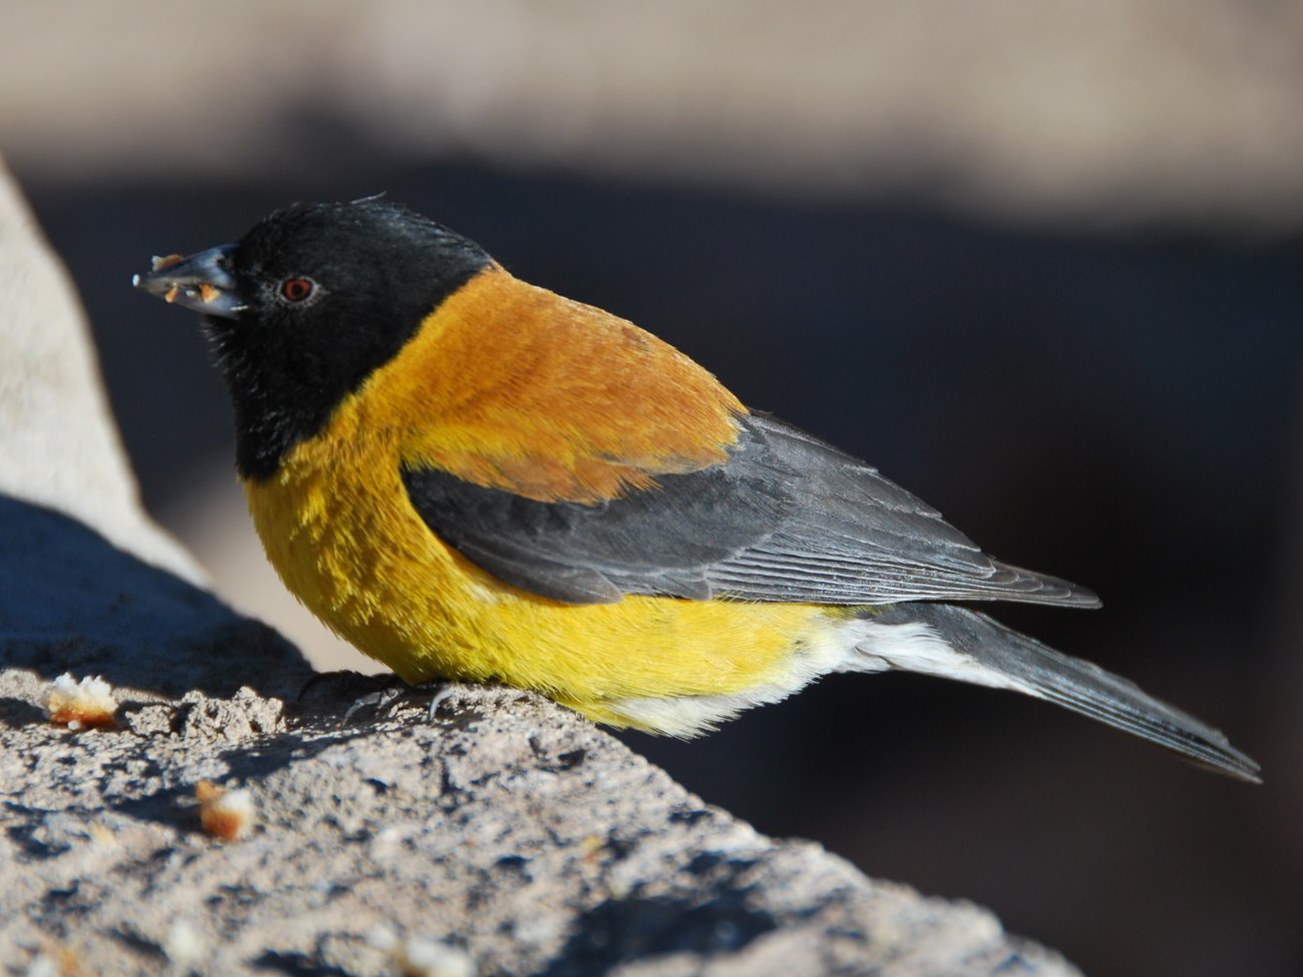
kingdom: Animalia
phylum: Chordata
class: Aves
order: Passeriformes
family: Thraupidae
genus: Phrygilus
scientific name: Phrygilus atriceps
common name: Black-hooded sierra finch
